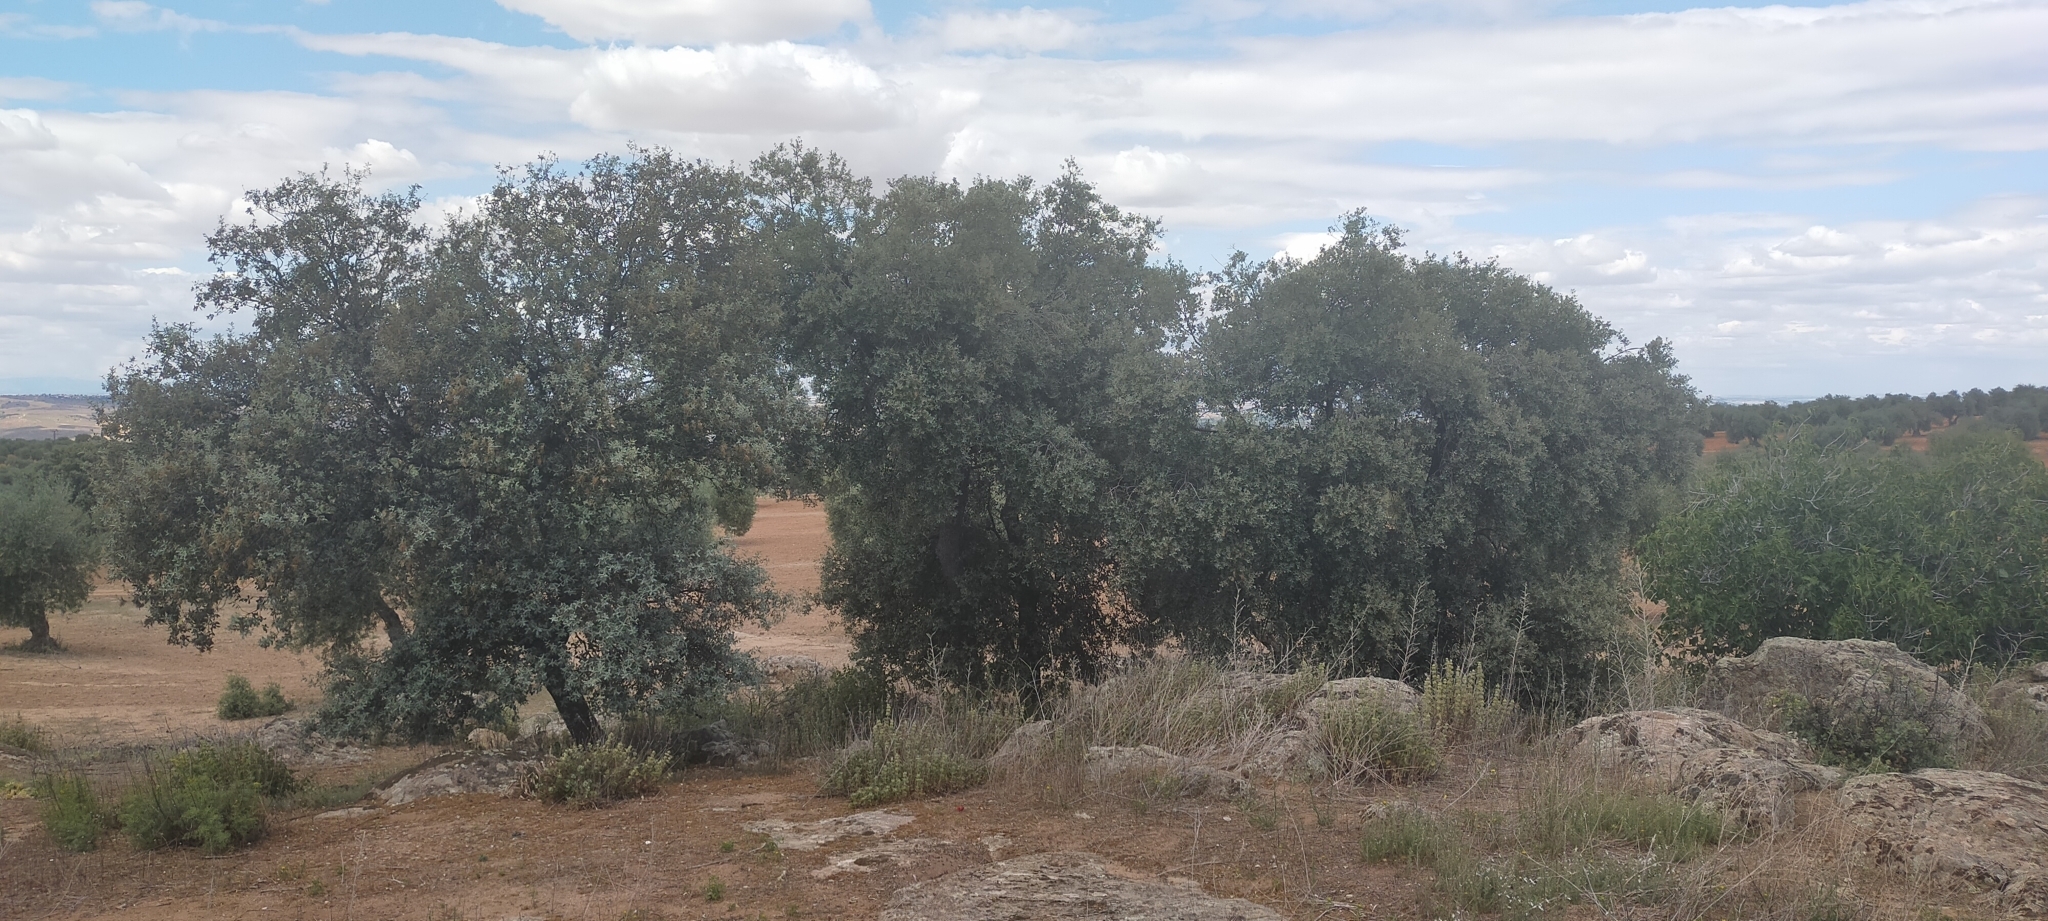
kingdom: Plantae
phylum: Tracheophyta
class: Magnoliopsida
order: Fagales
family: Fagaceae
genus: Quercus
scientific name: Quercus rotundifolia
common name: Holm oak
